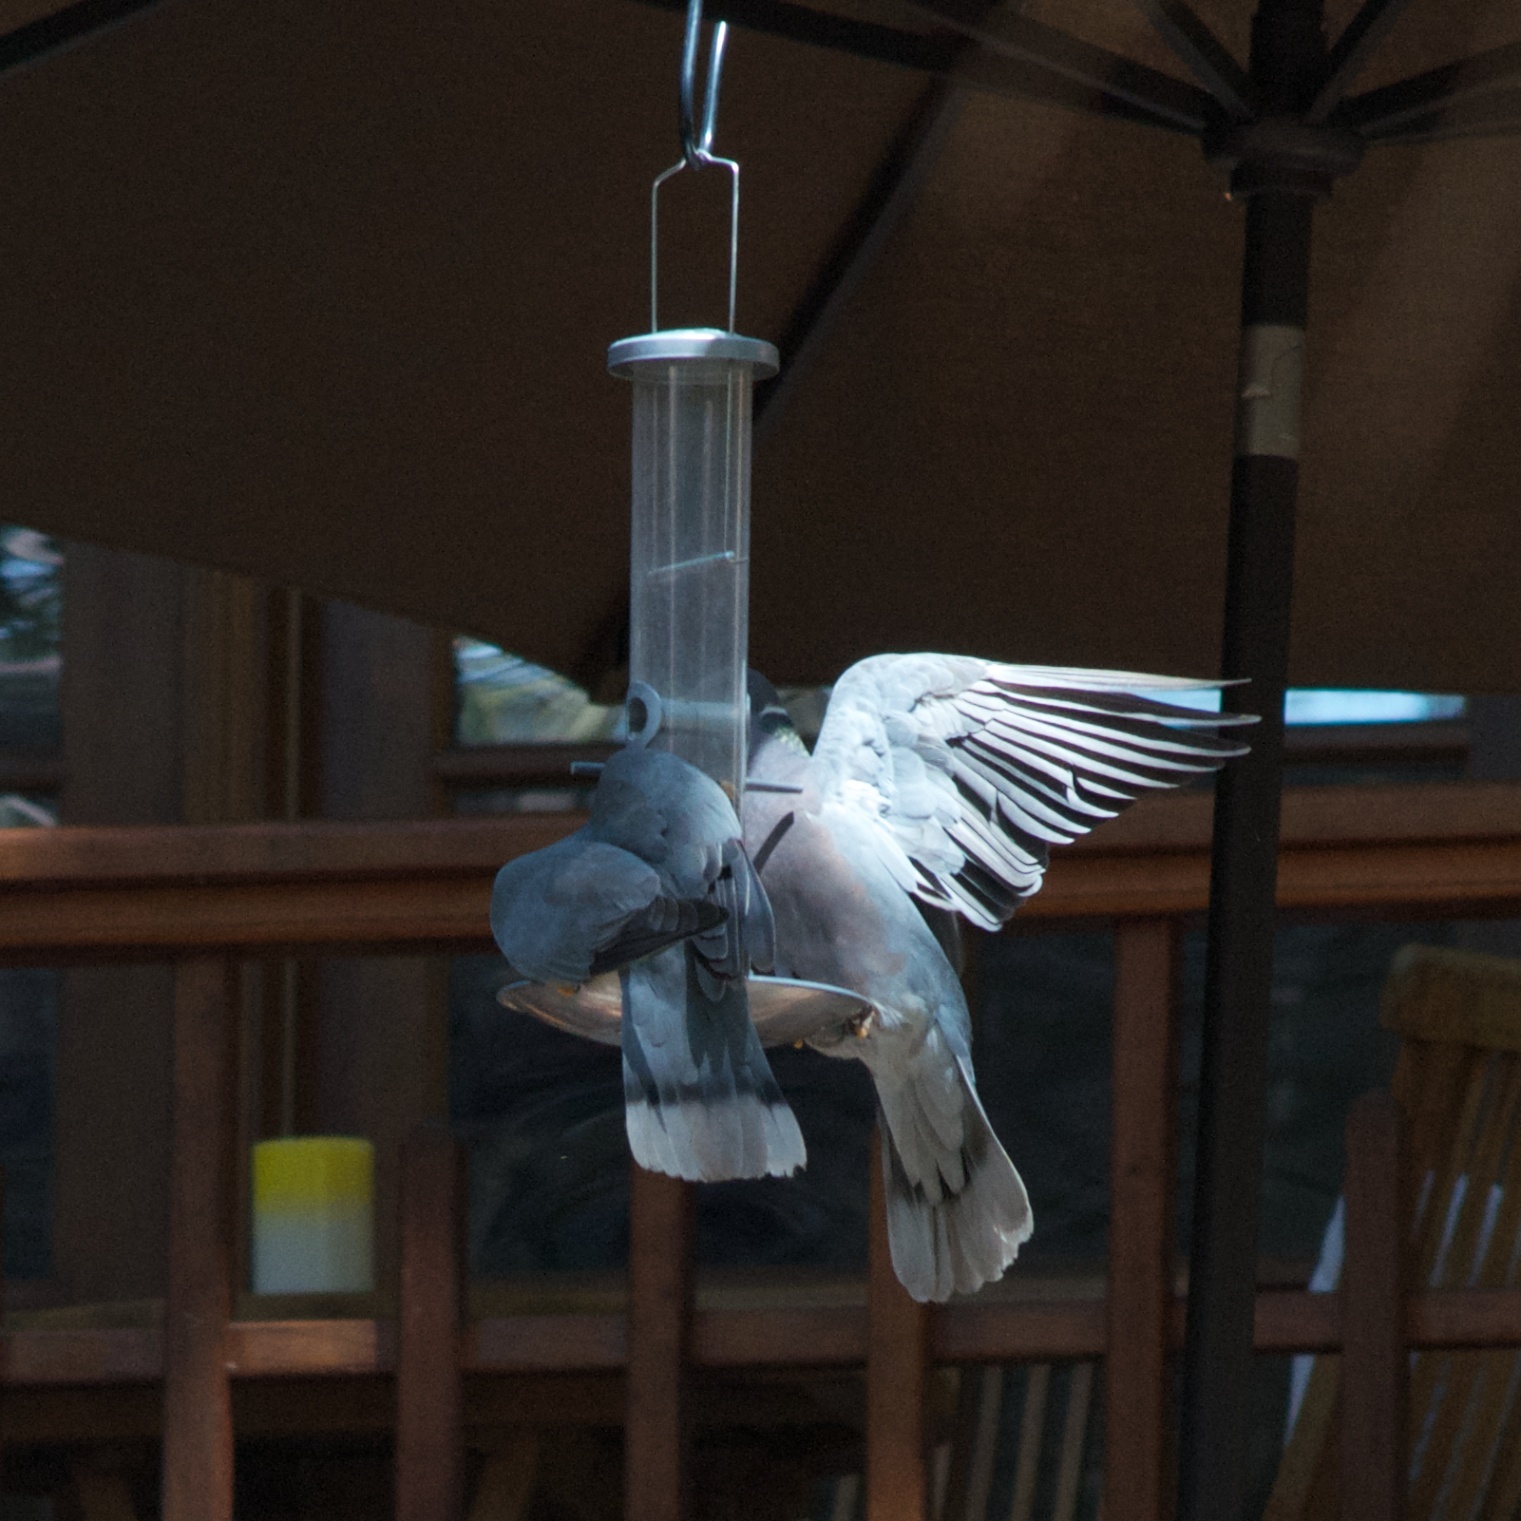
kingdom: Animalia
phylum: Chordata
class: Aves
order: Columbiformes
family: Columbidae
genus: Patagioenas
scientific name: Patagioenas fasciata
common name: Band-tailed pigeon
